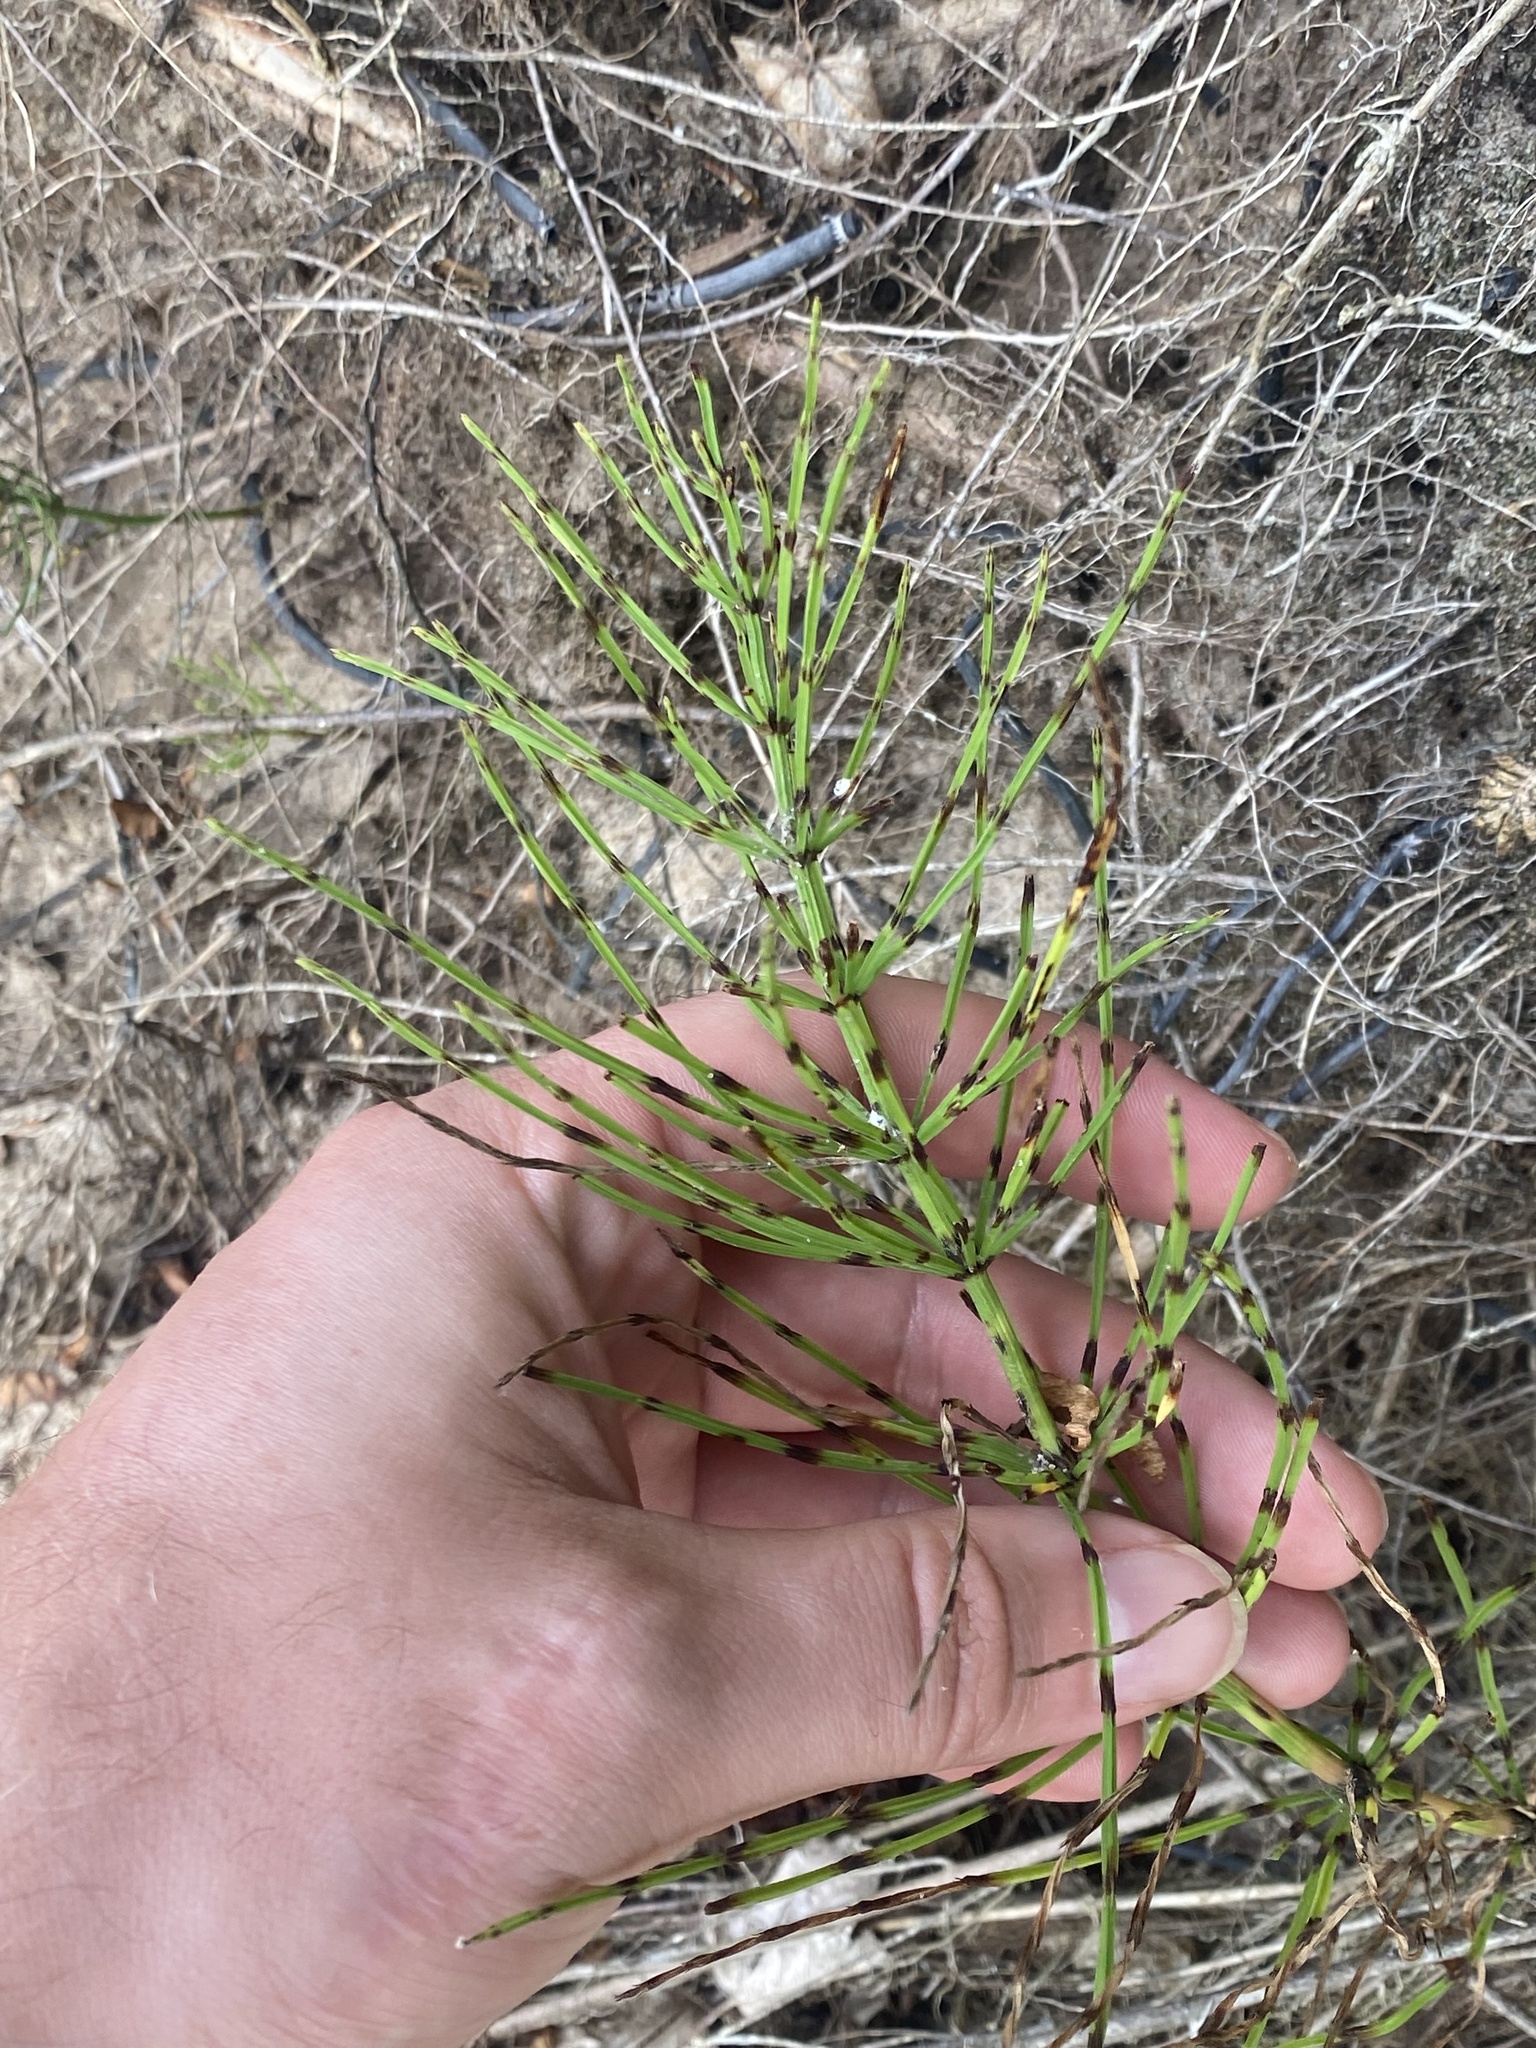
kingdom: Plantae
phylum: Tracheophyta
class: Polypodiopsida
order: Equisetales
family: Equisetaceae
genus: Equisetum
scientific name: Equisetum arvense
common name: Field horsetail
